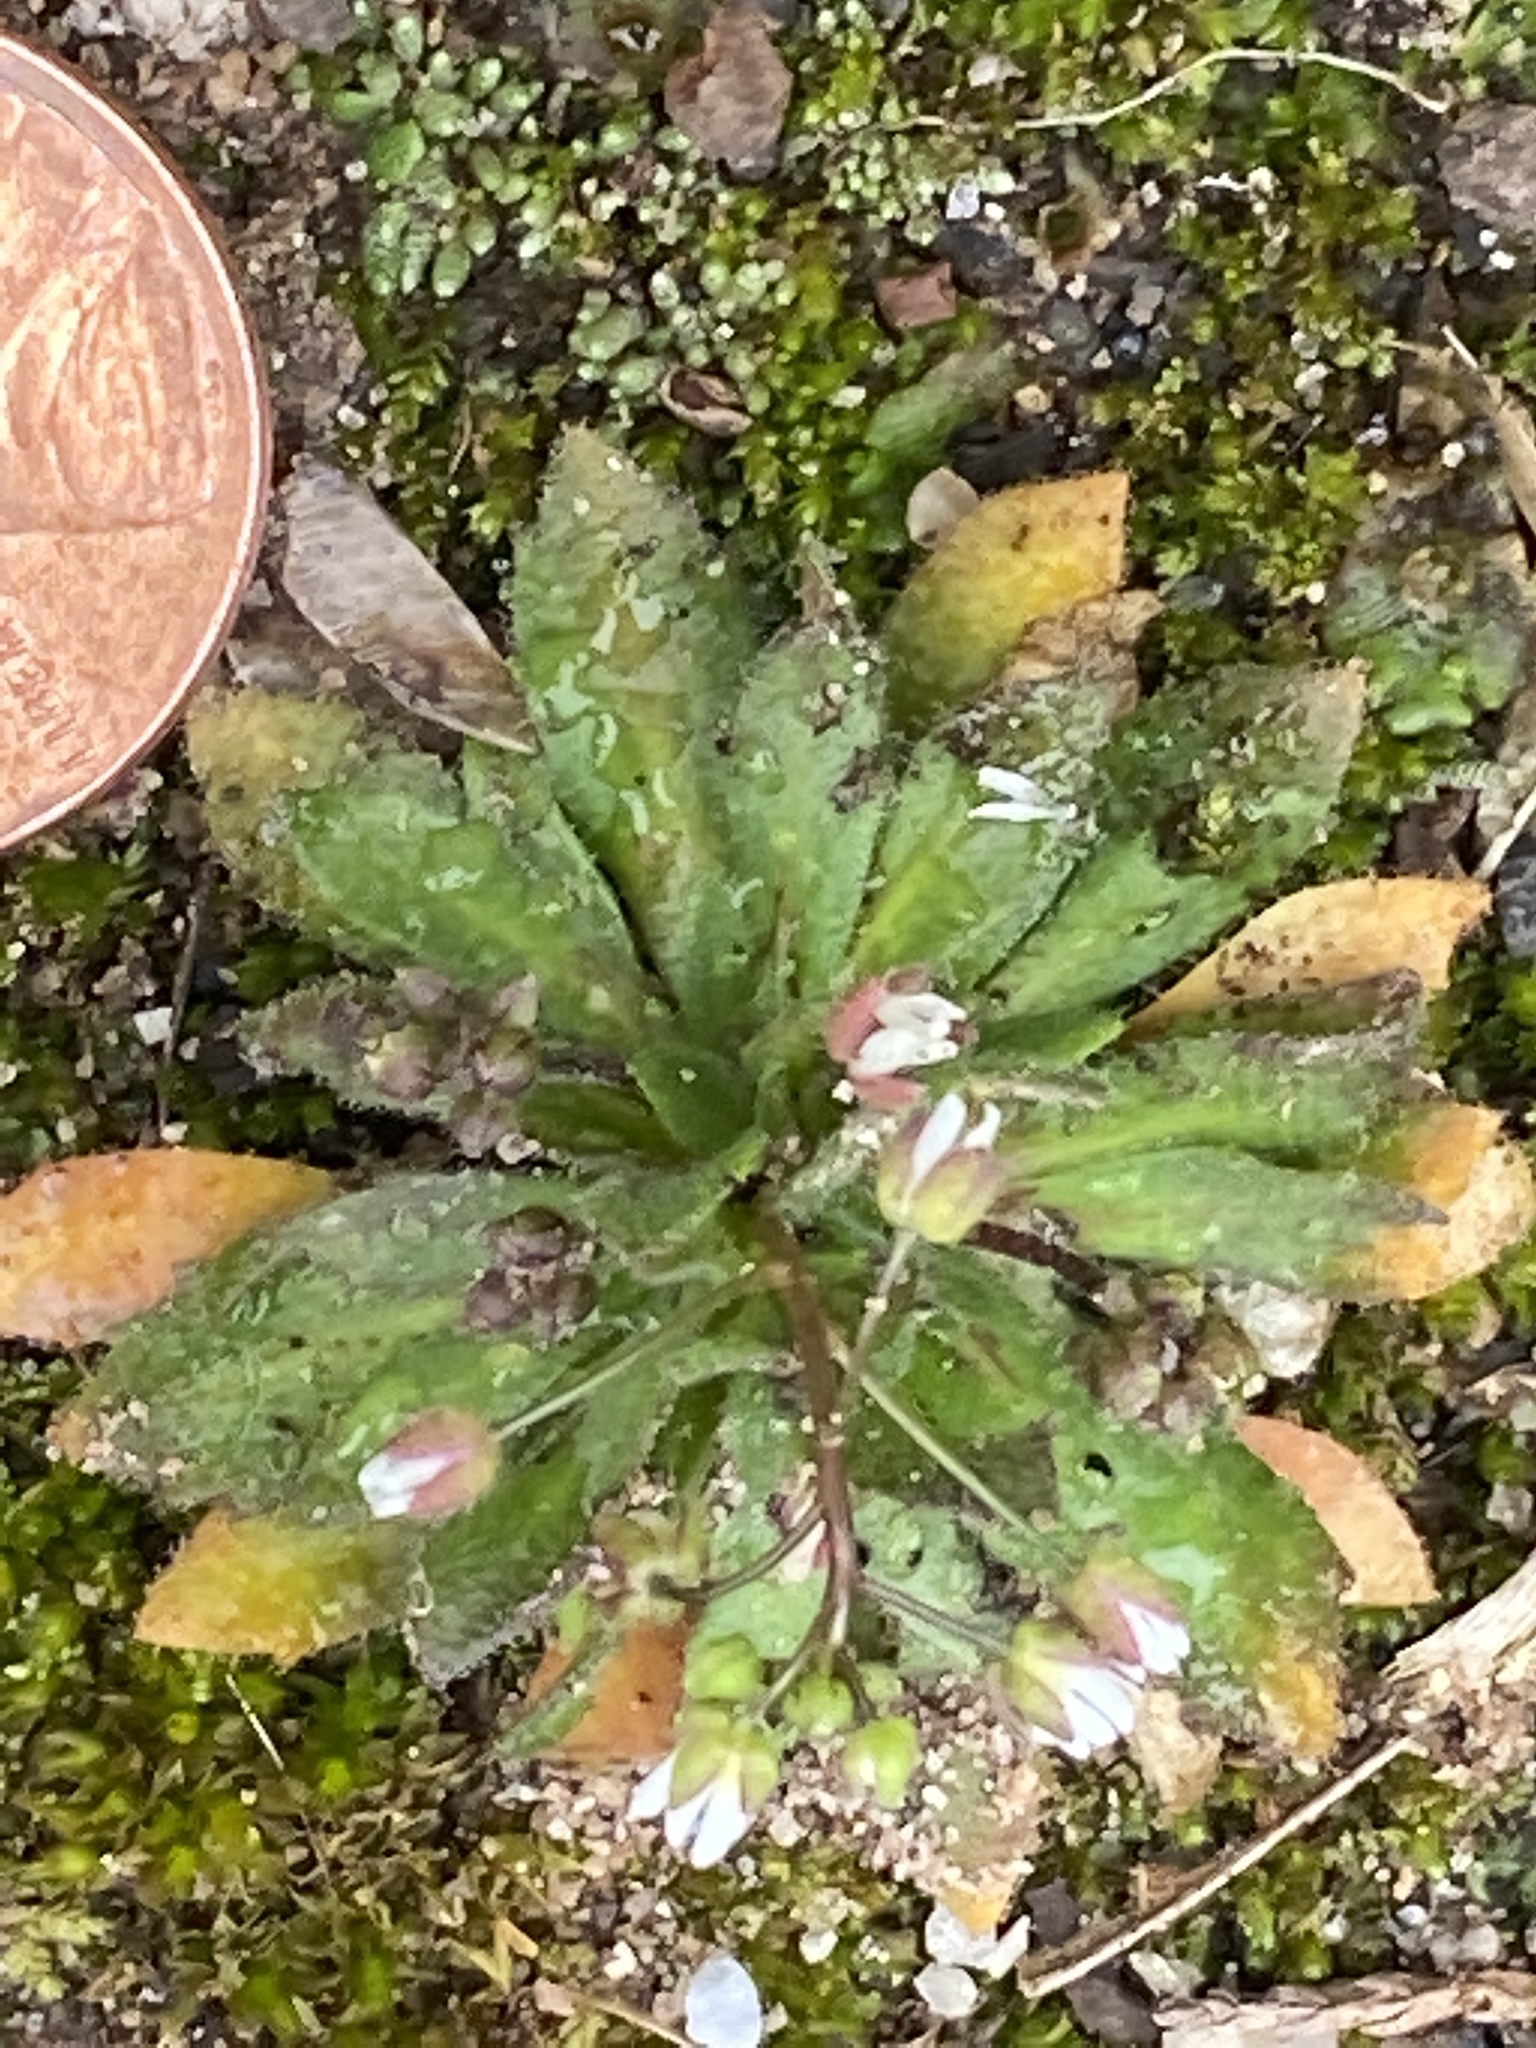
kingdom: Plantae
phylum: Tracheophyta
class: Magnoliopsida
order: Brassicales
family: Brassicaceae
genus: Draba
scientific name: Draba verna
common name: Spring draba
